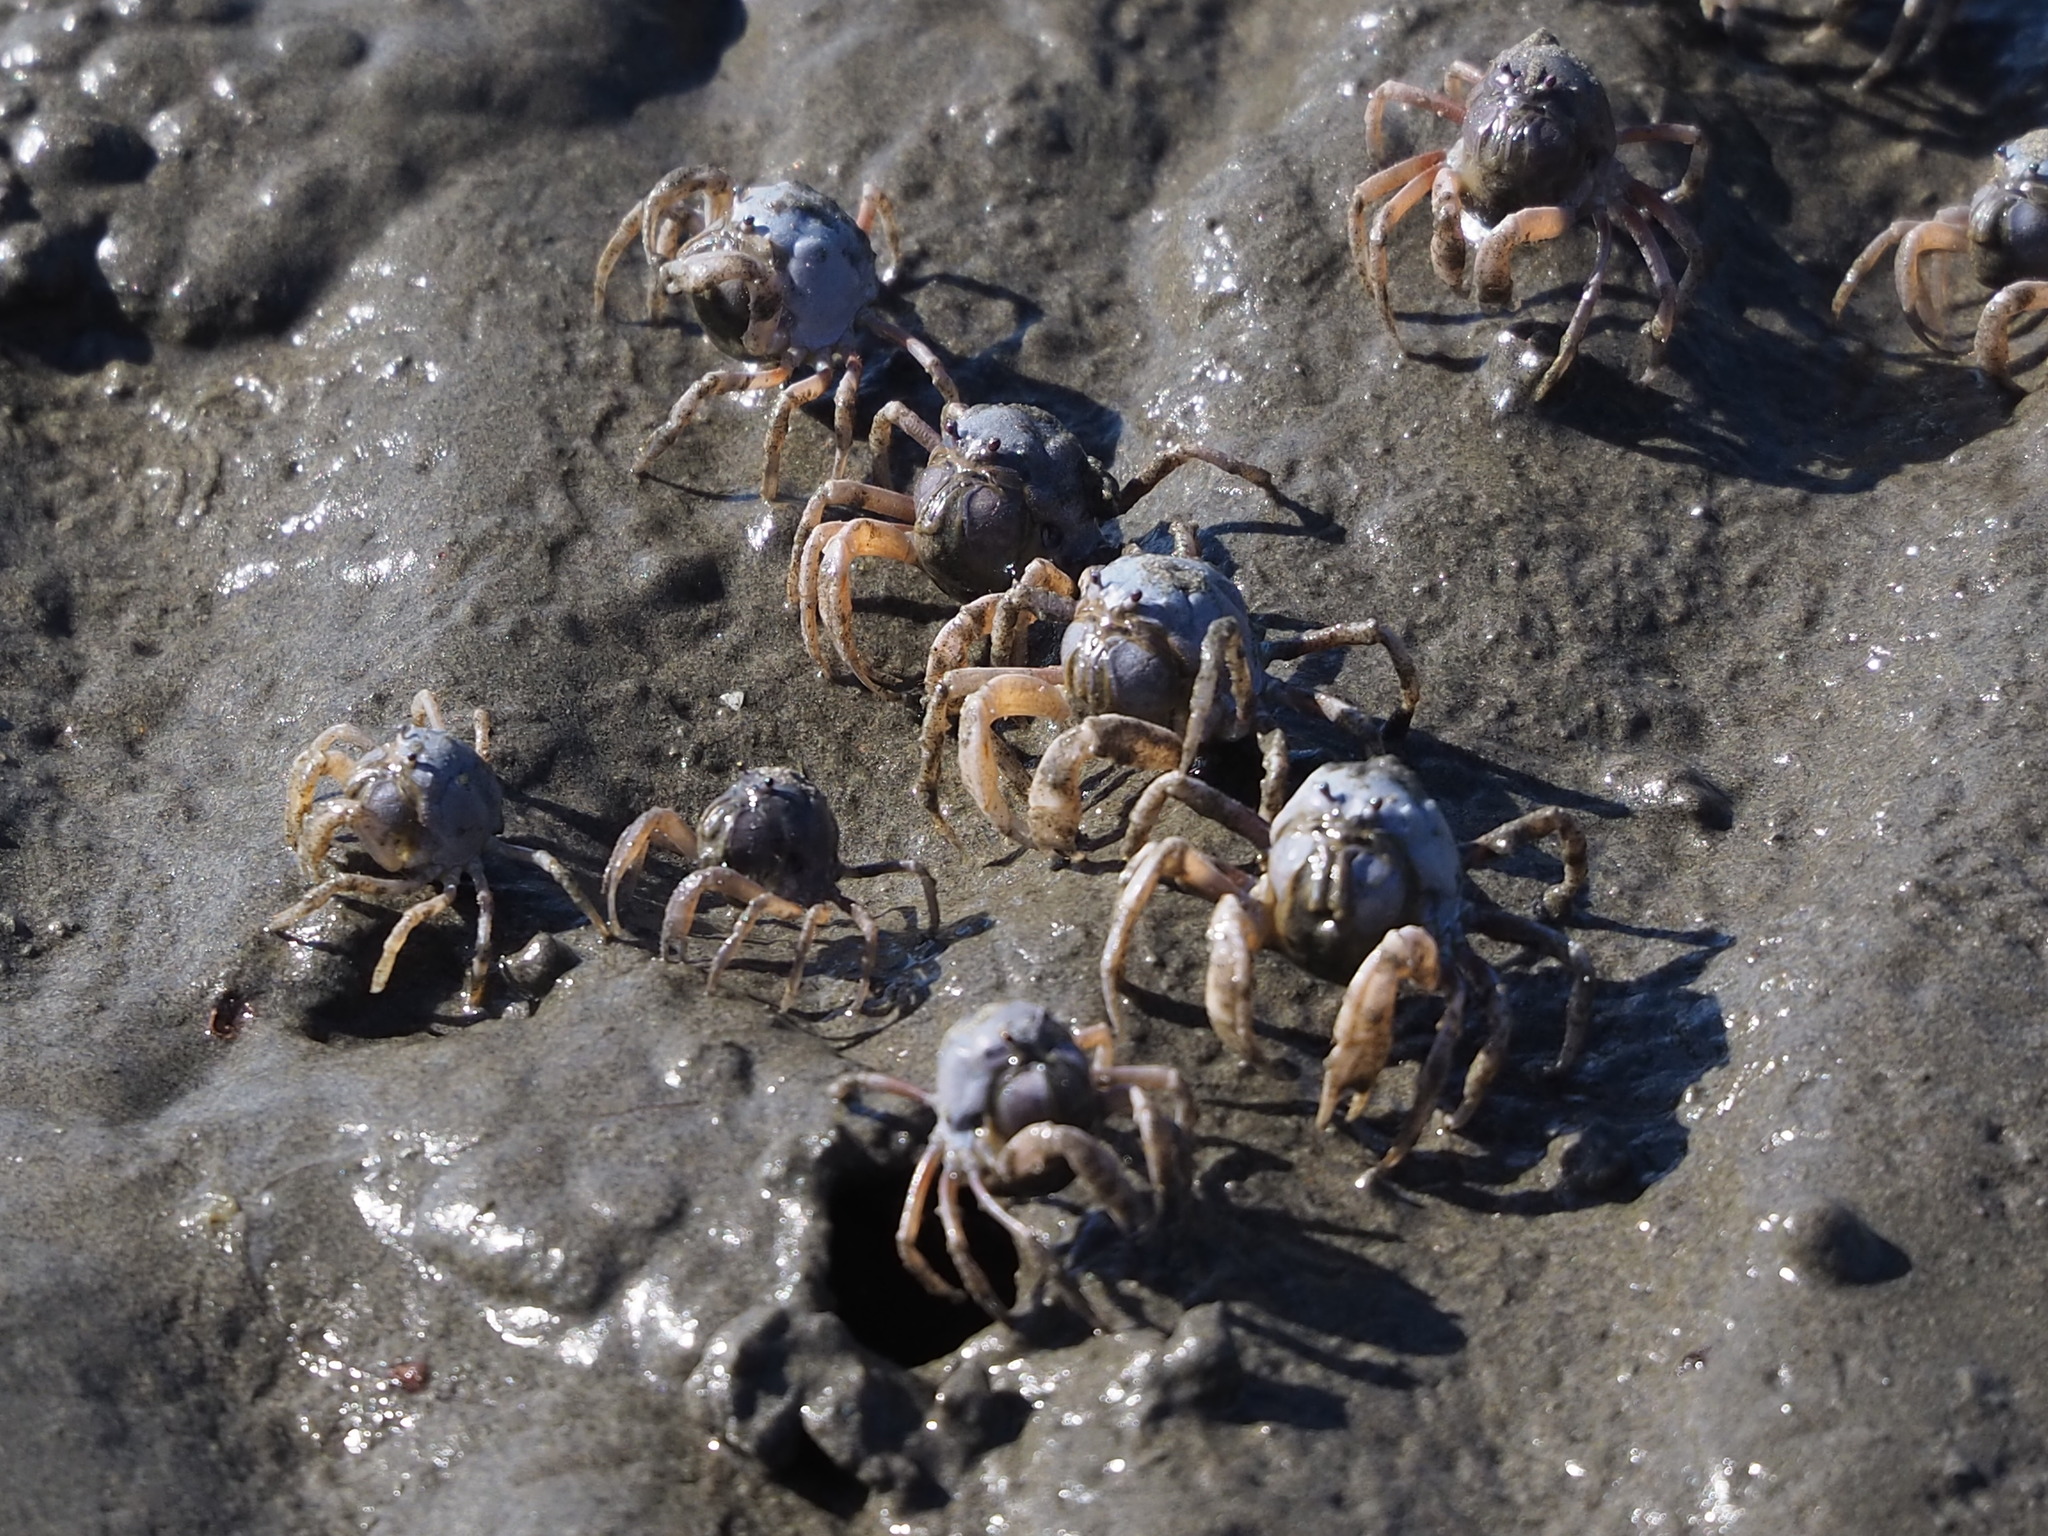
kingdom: Animalia
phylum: Arthropoda
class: Malacostraca
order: Decapoda
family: Mictyridae
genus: Mictyris
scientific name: Mictyris brevidactylus
